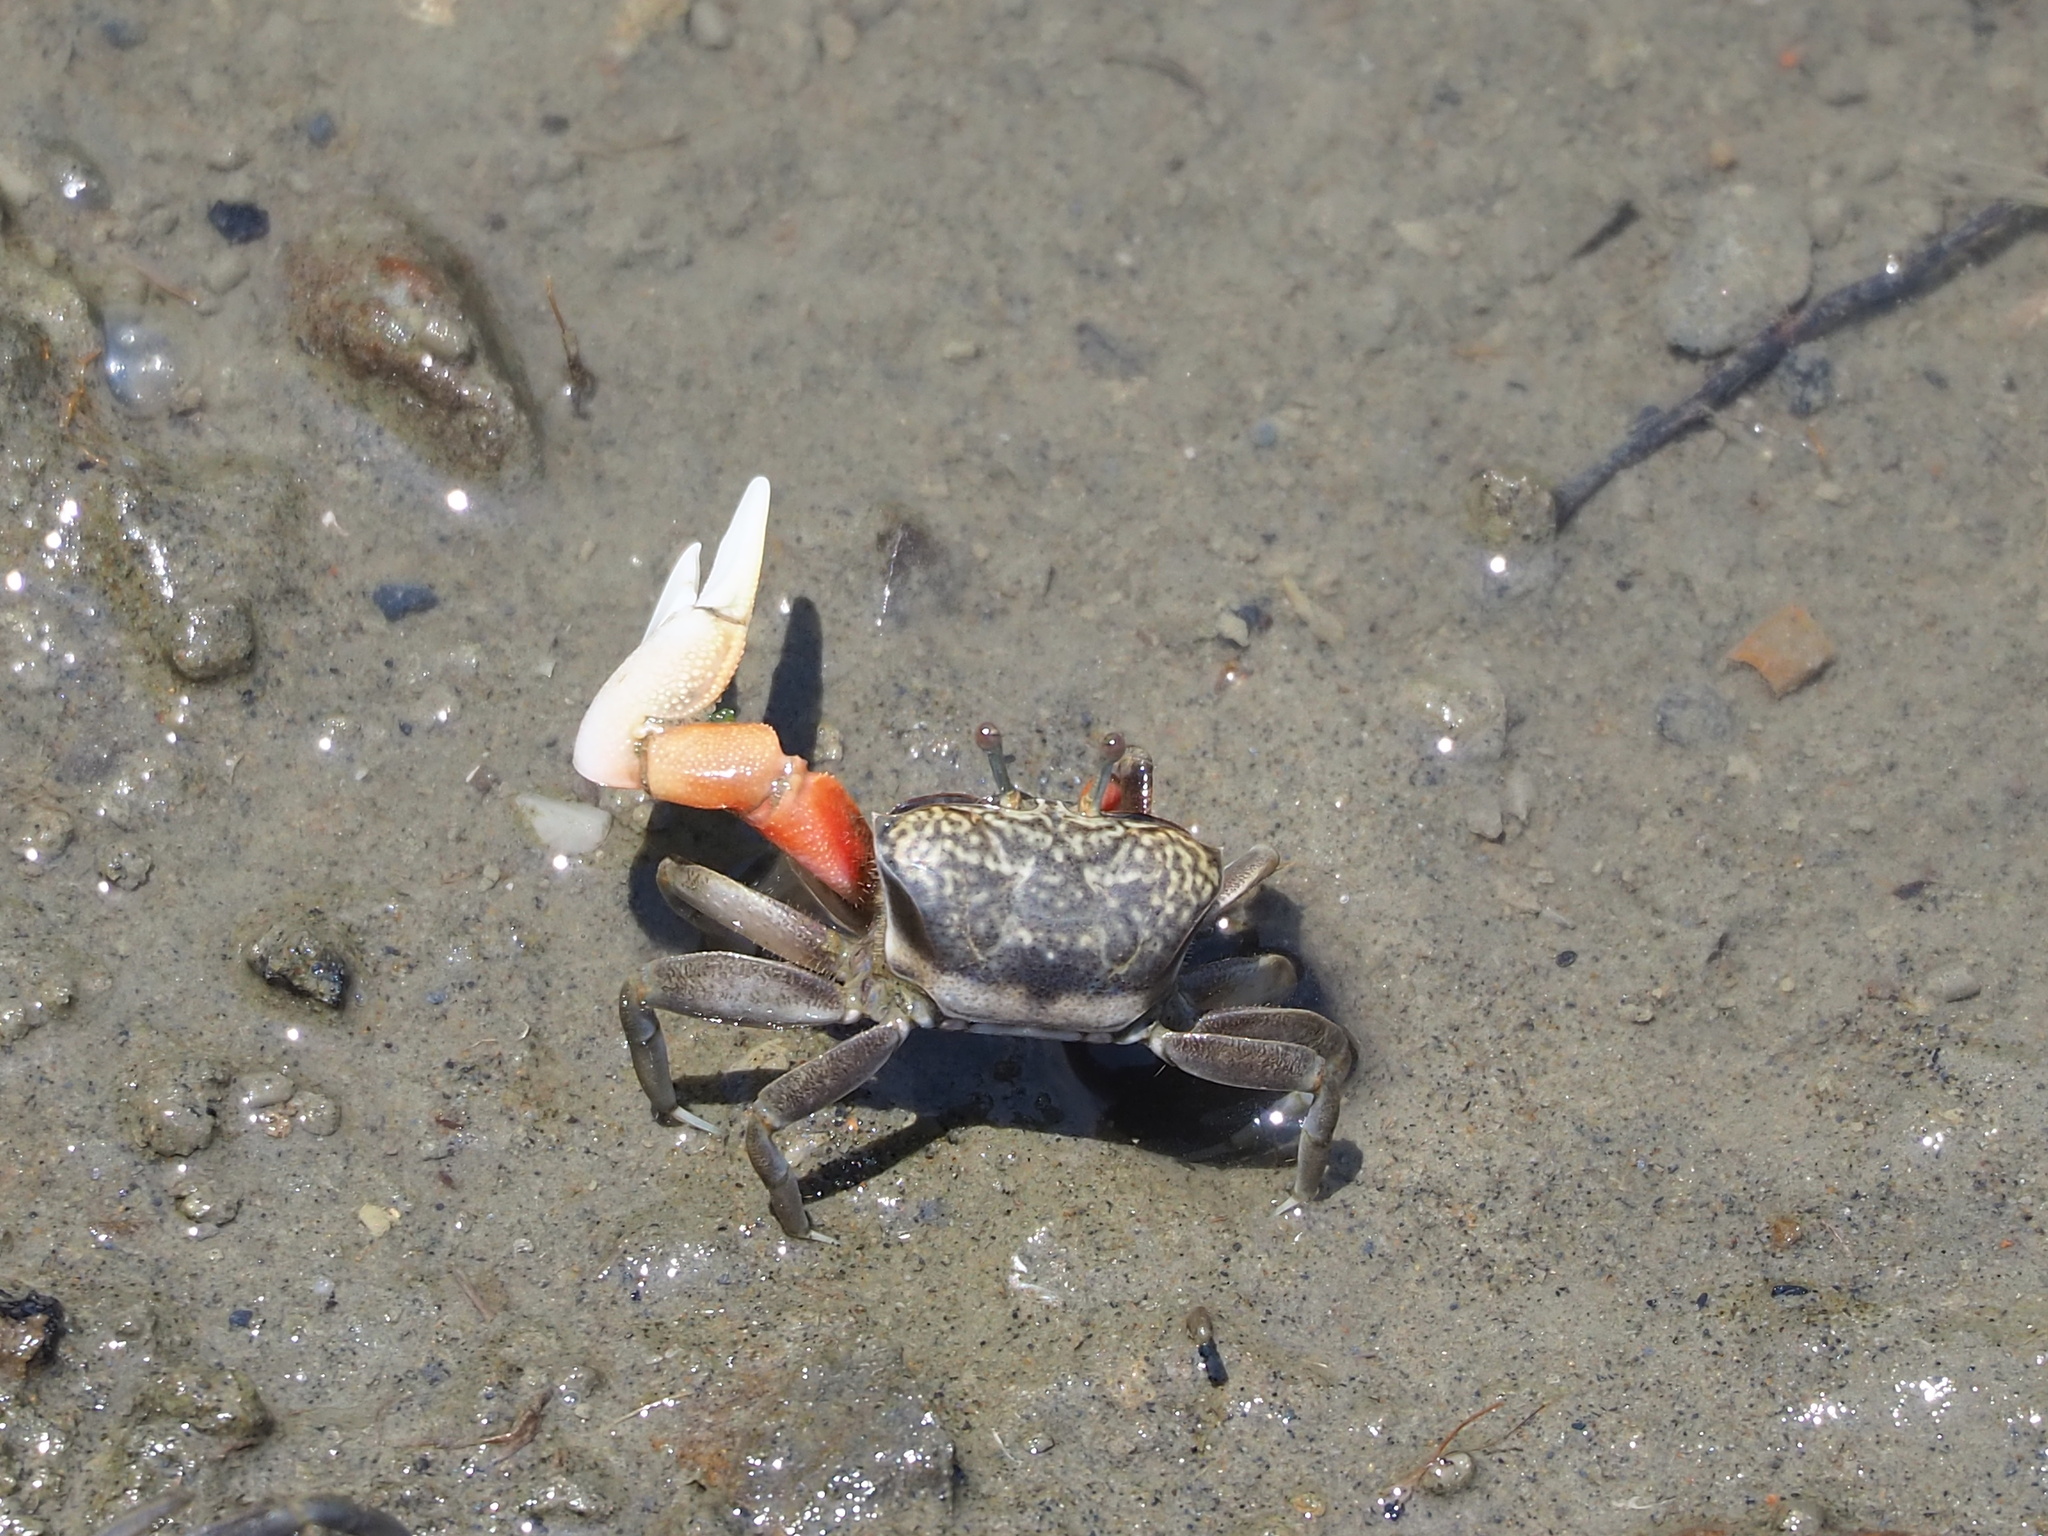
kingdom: Animalia
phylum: Arthropoda
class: Malacostraca
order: Decapoda
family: Ocypodidae
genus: Tubuca
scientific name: Tubuca arcuata
